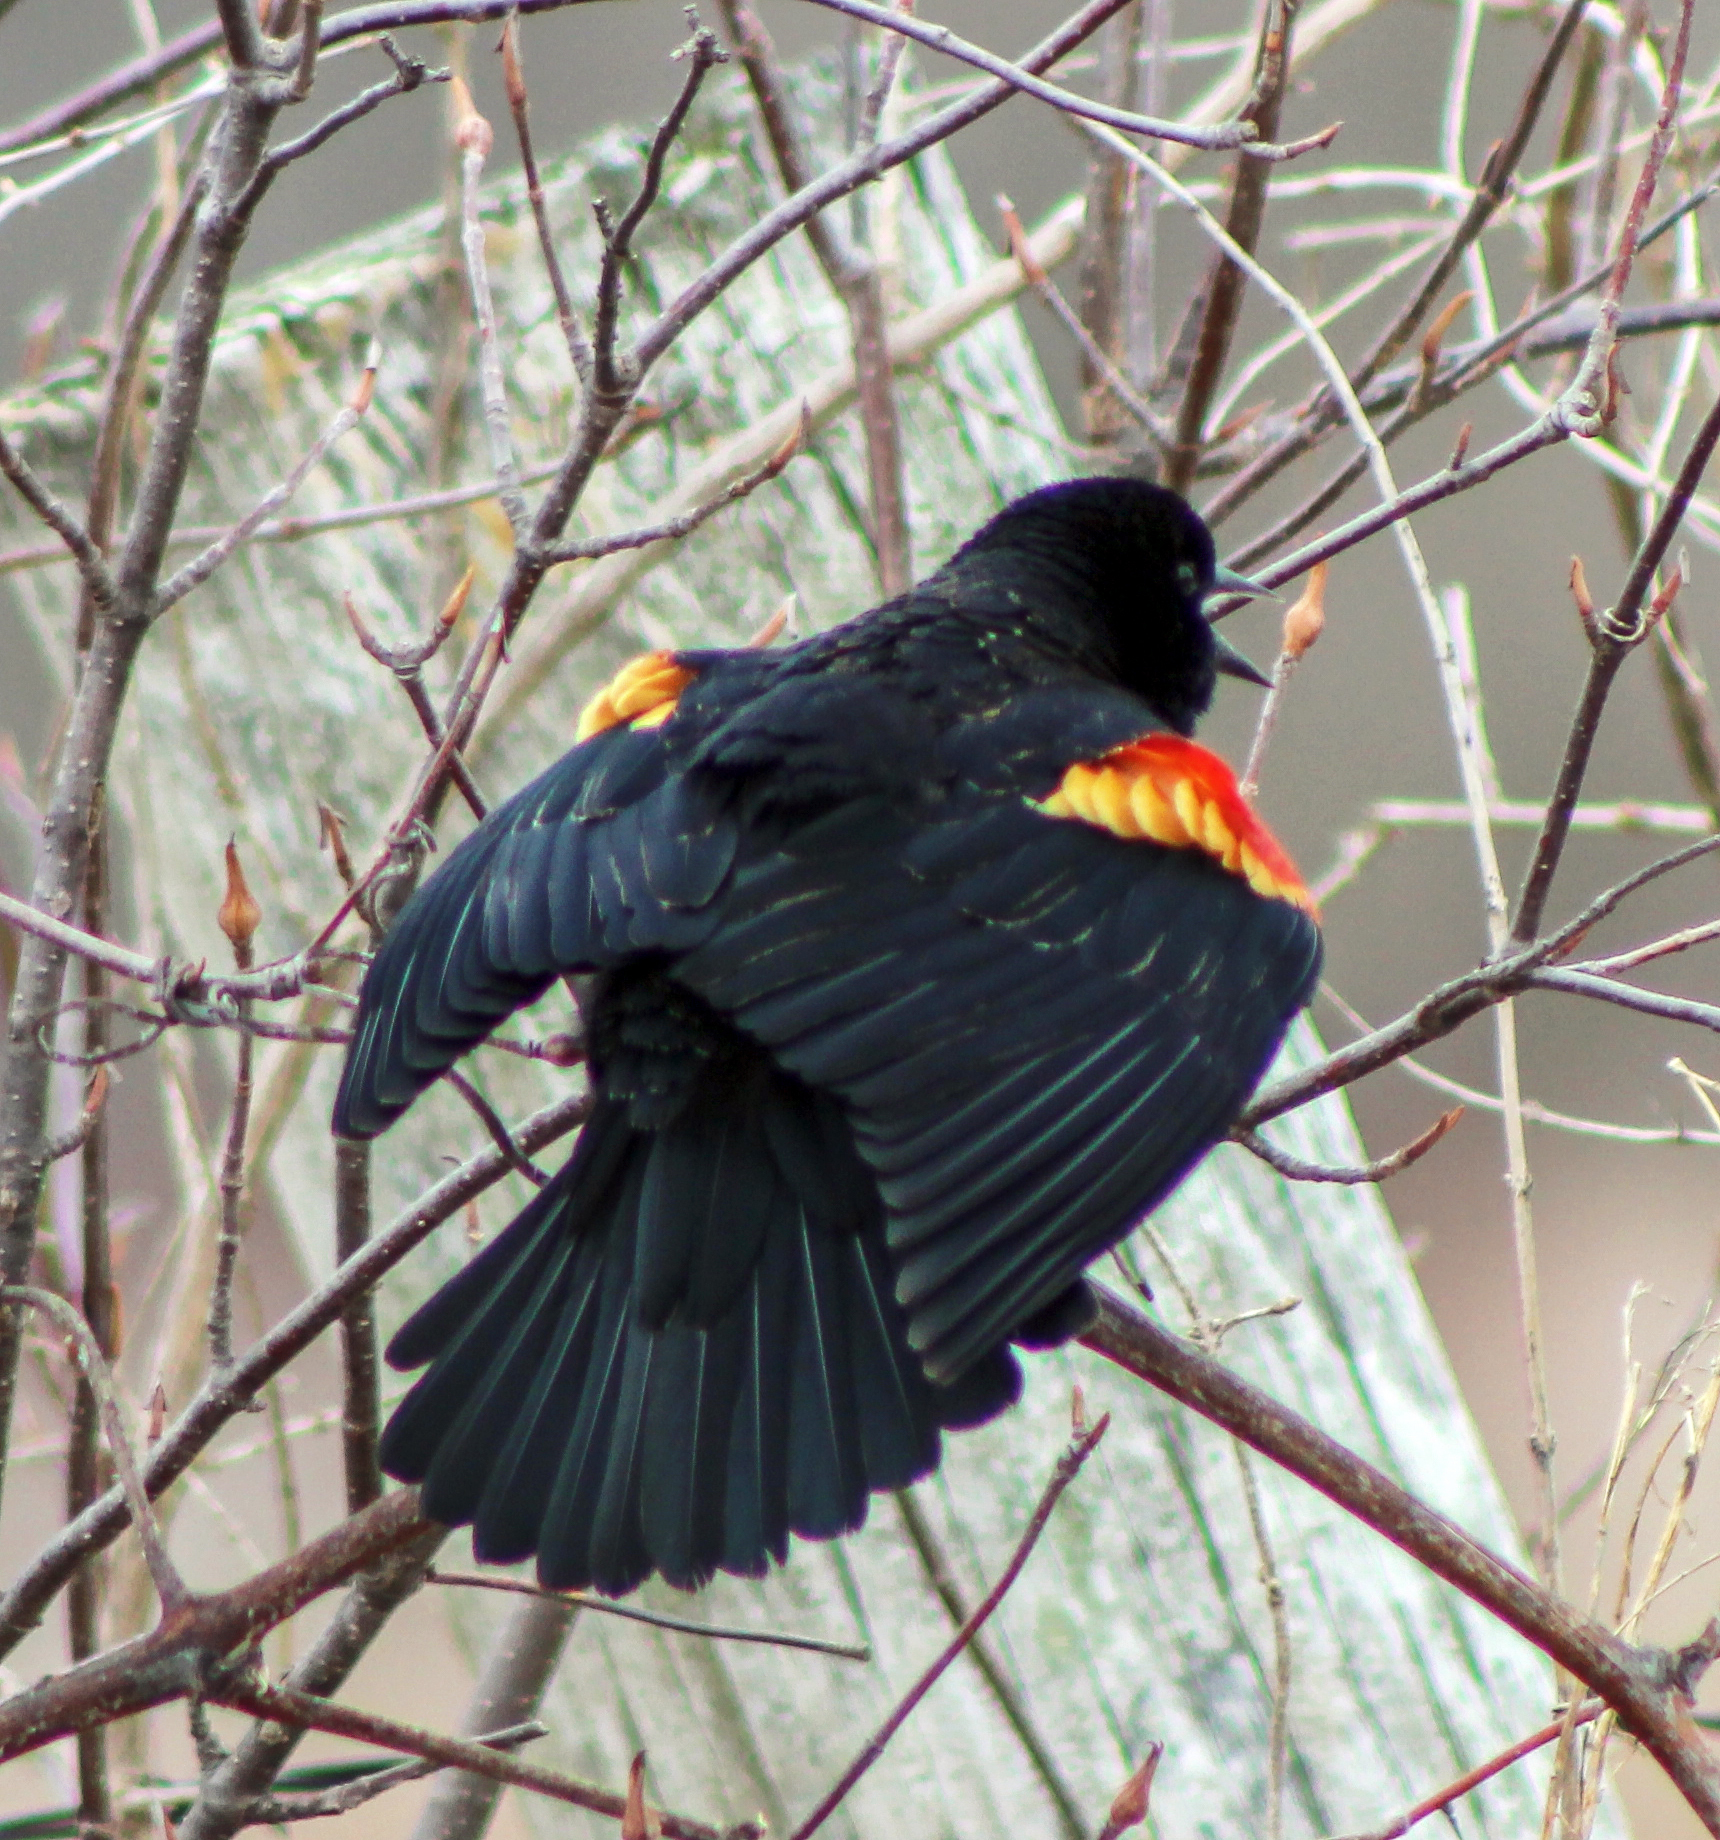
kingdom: Animalia
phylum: Chordata
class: Aves
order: Passeriformes
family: Icteridae
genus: Agelaius
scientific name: Agelaius phoeniceus
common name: Red-winged blackbird
